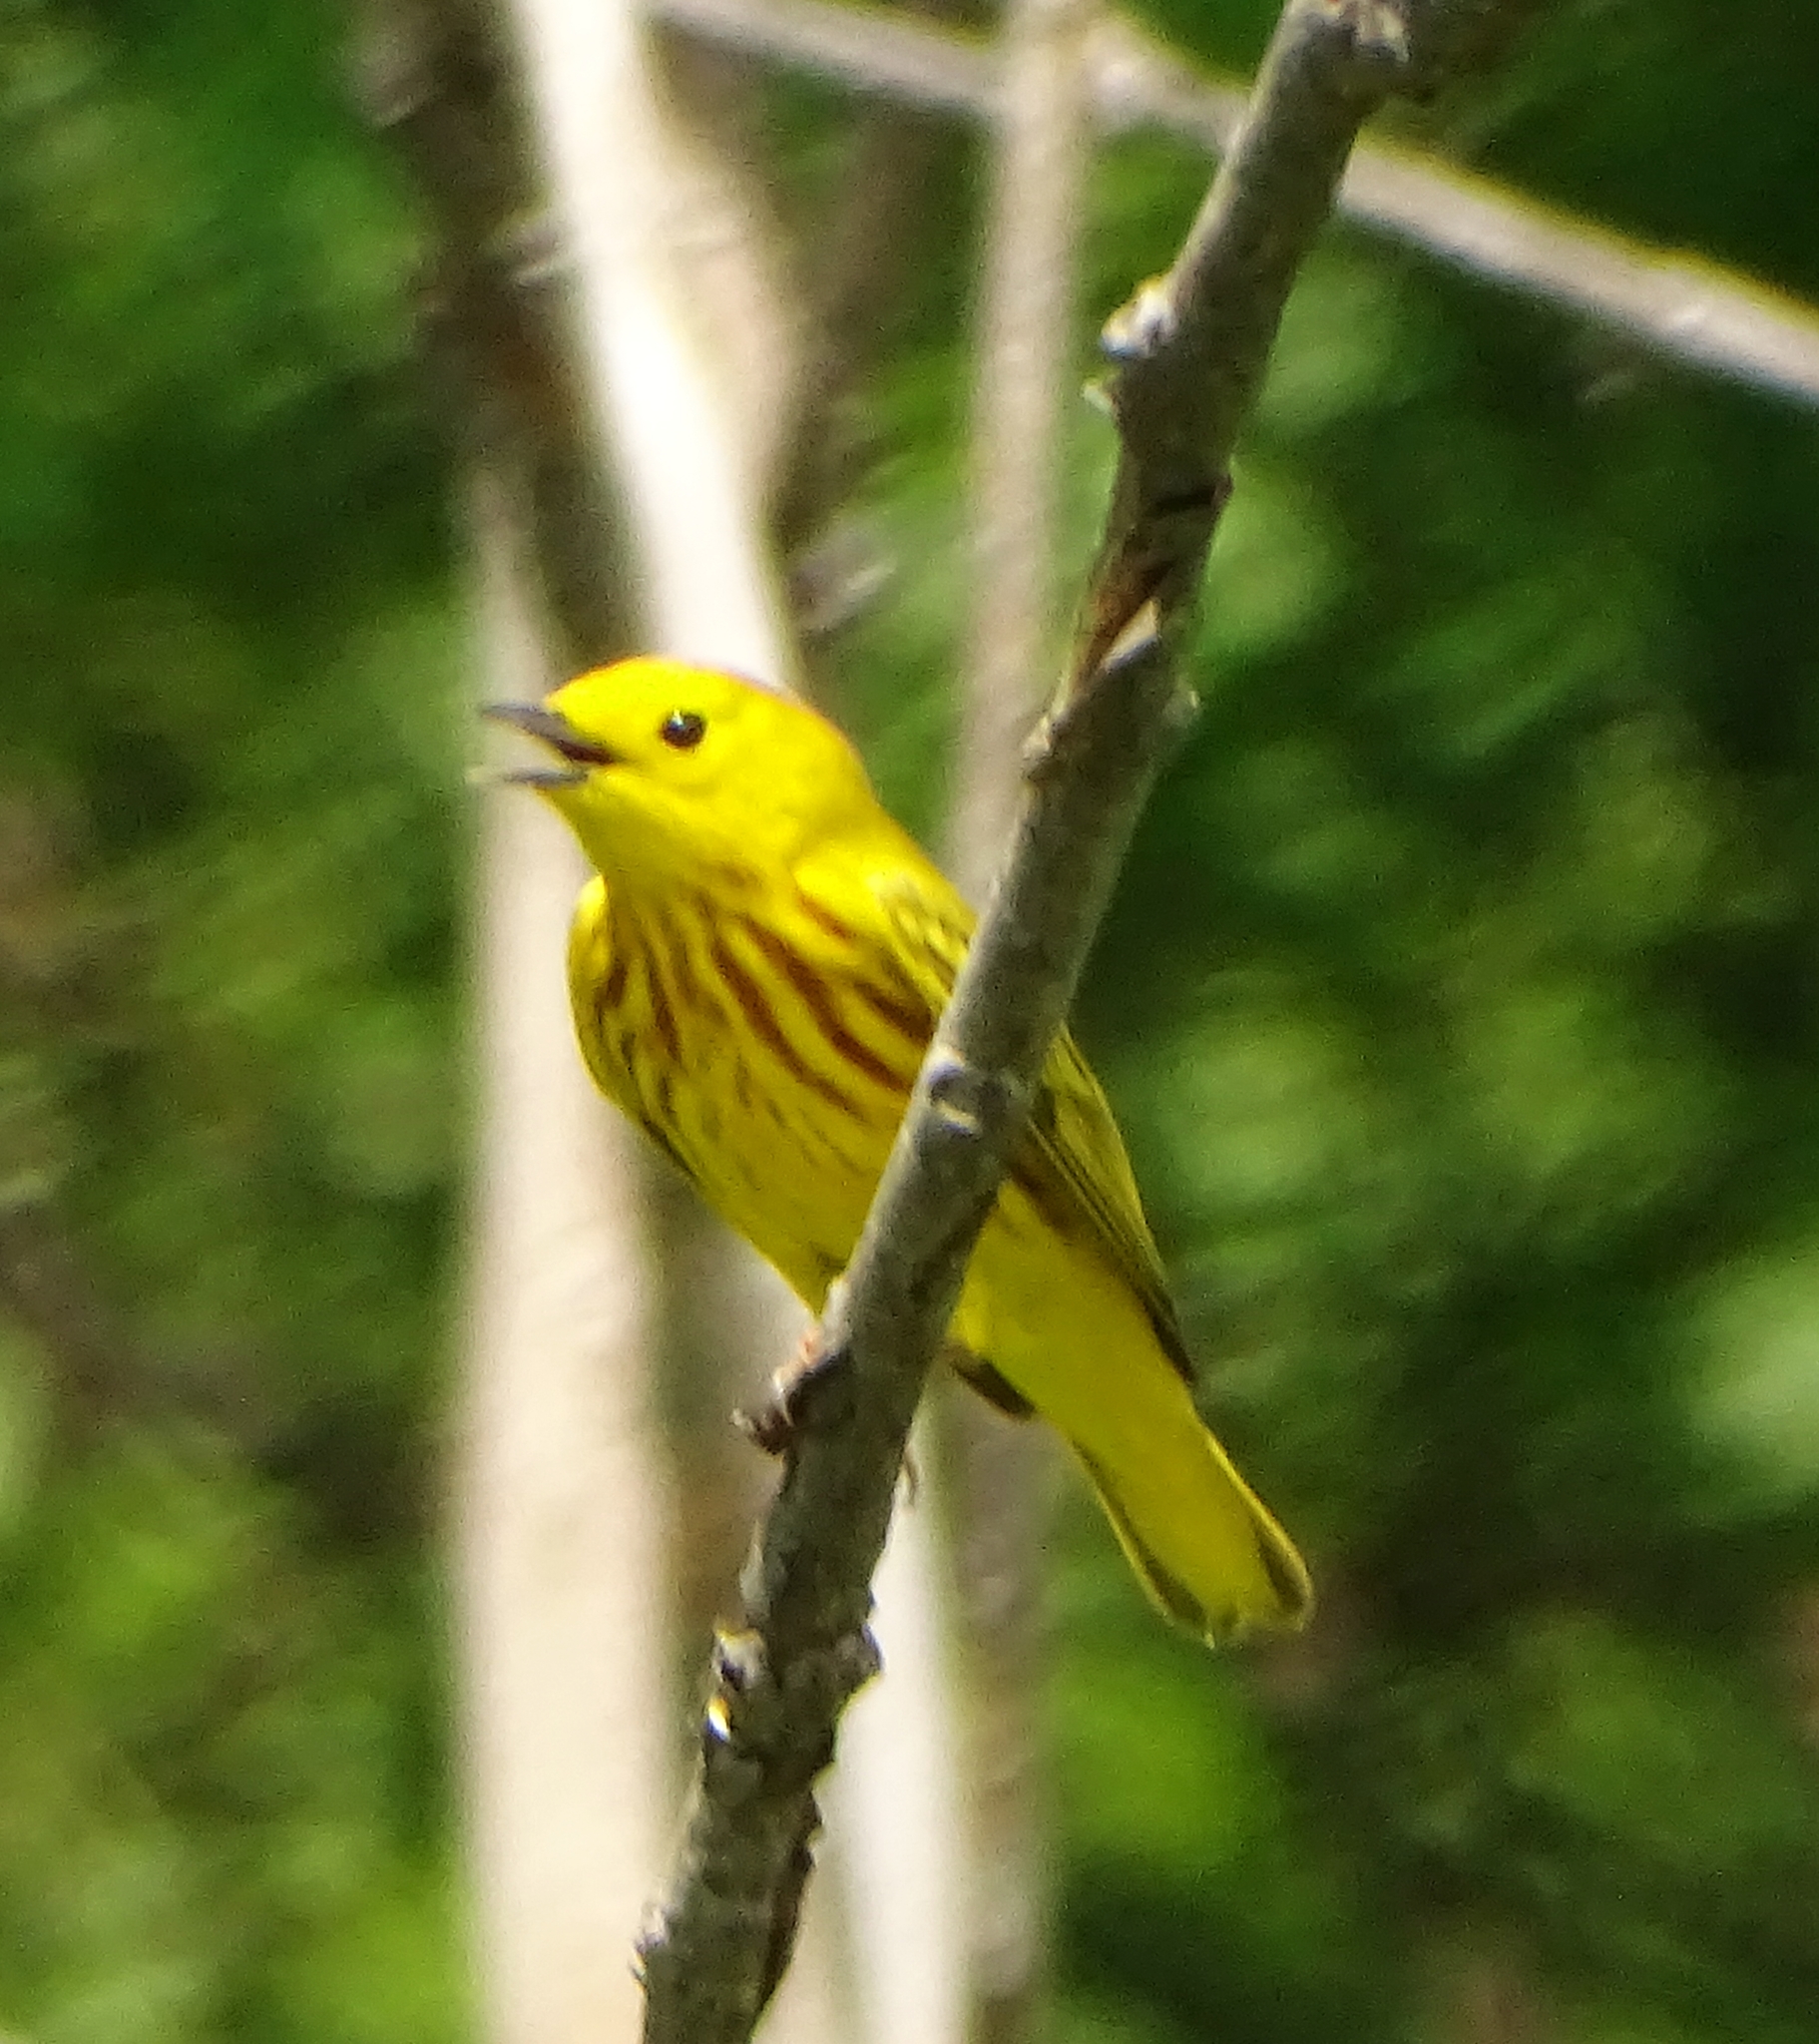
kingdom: Animalia
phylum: Chordata
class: Aves
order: Passeriformes
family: Parulidae
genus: Setophaga
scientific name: Setophaga petechia
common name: Yellow warbler
